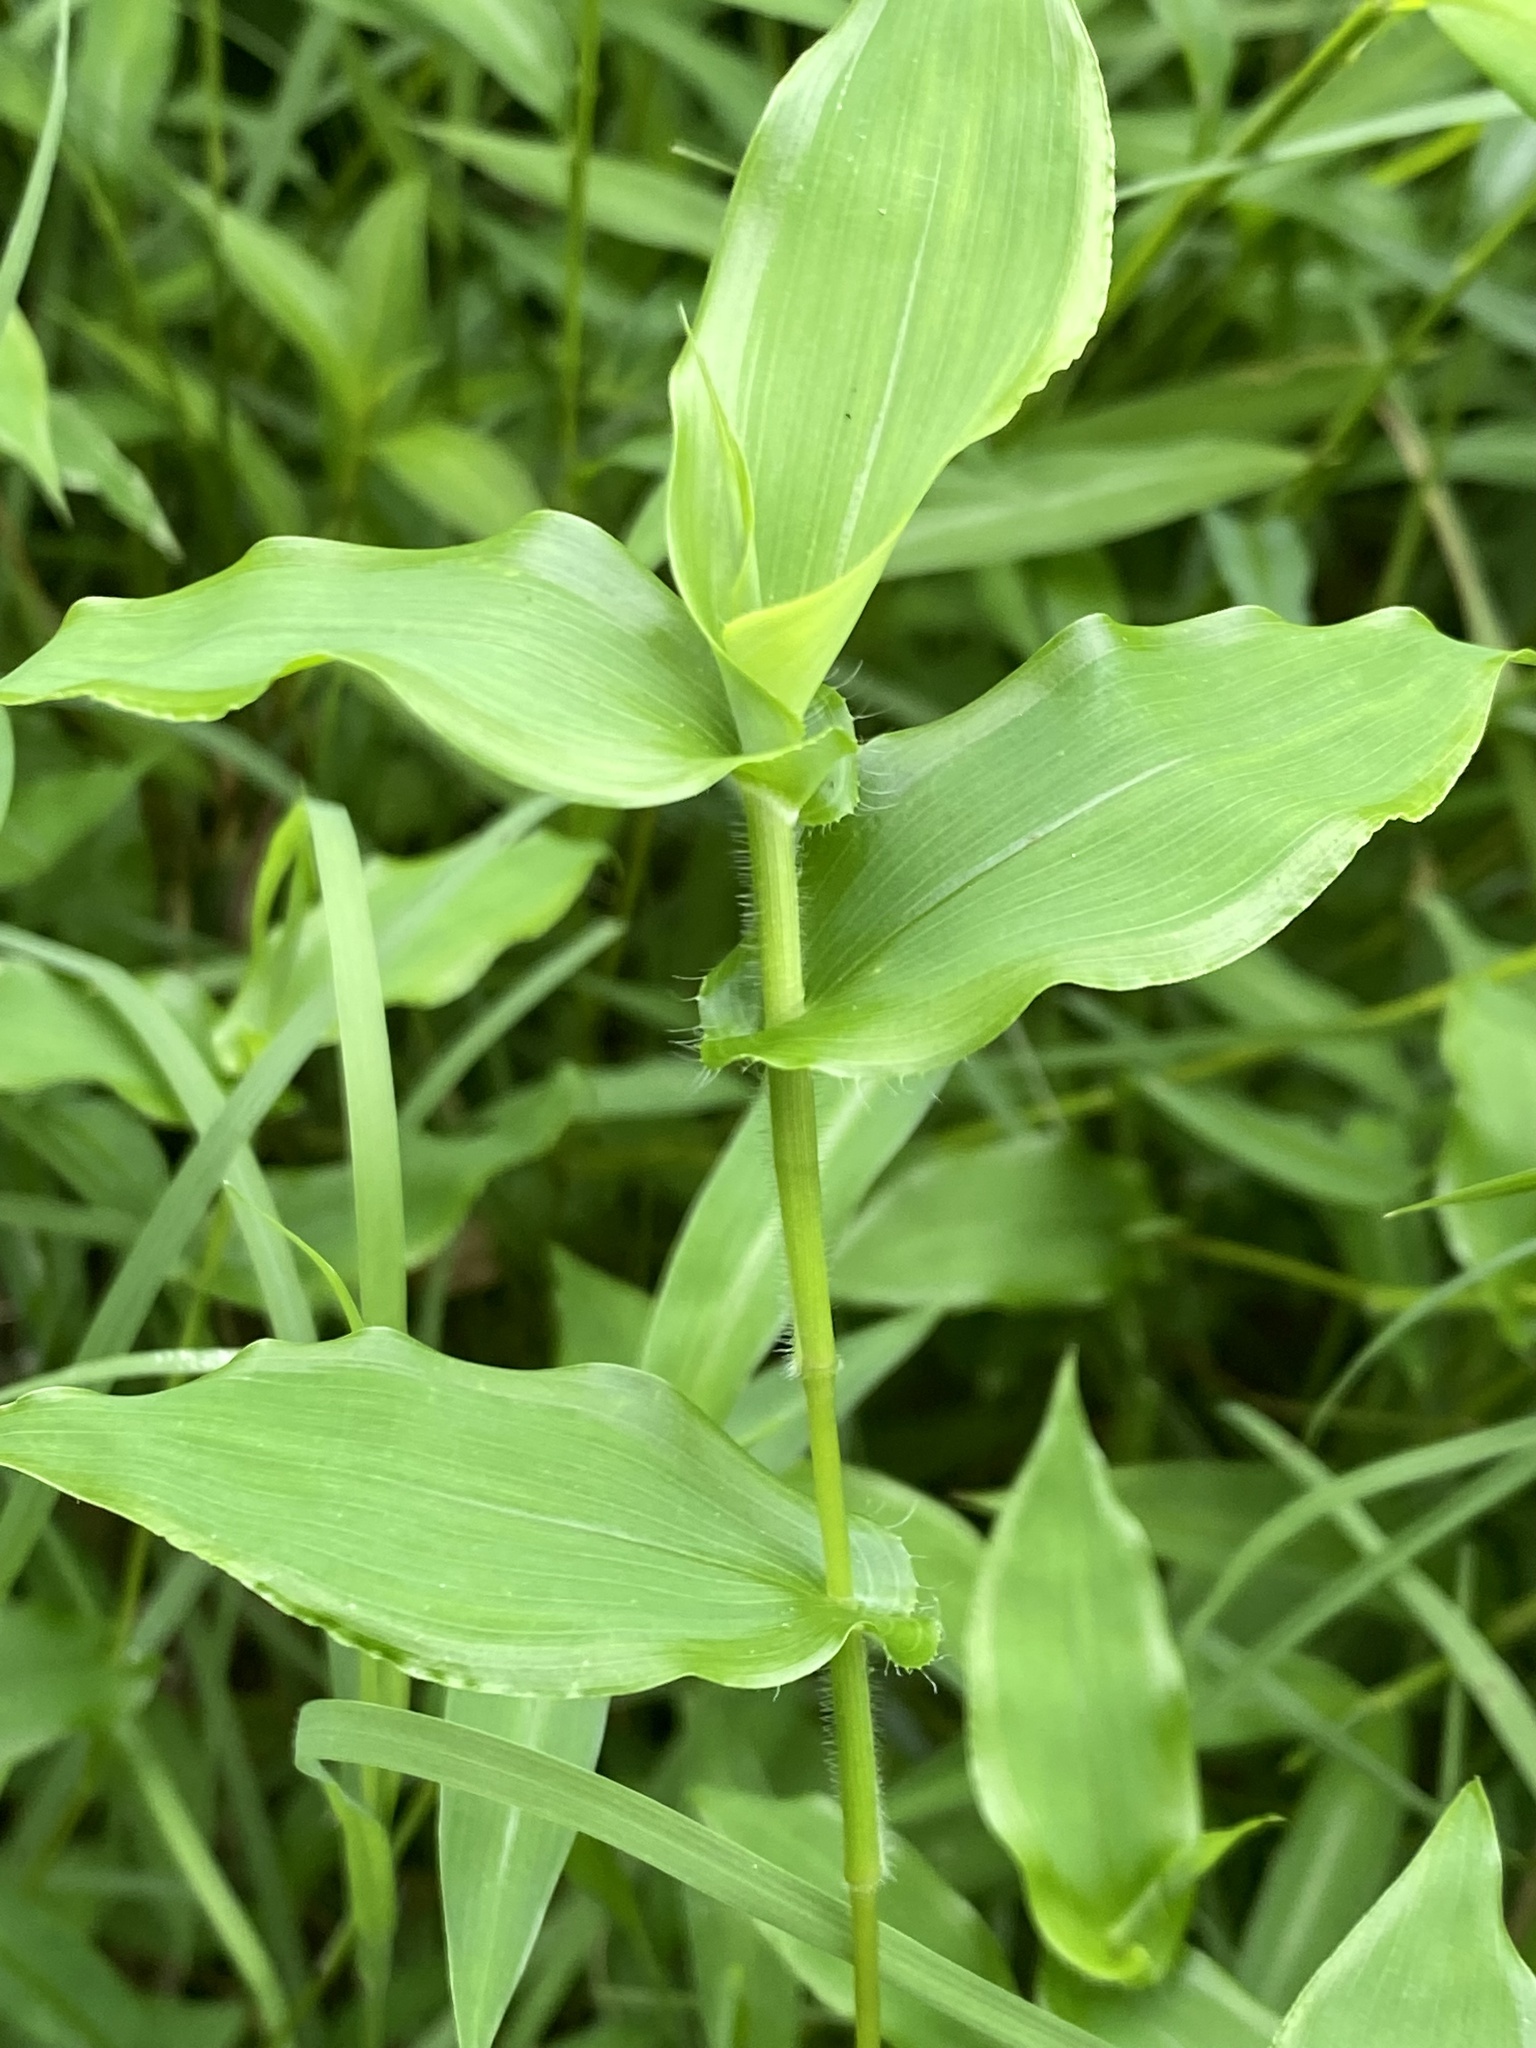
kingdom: Plantae
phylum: Tracheophyta
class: Liliopsida
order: Poales
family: Poaceae
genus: Arthraxon
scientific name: Arthraxon hispidus
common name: Small carpgrass
